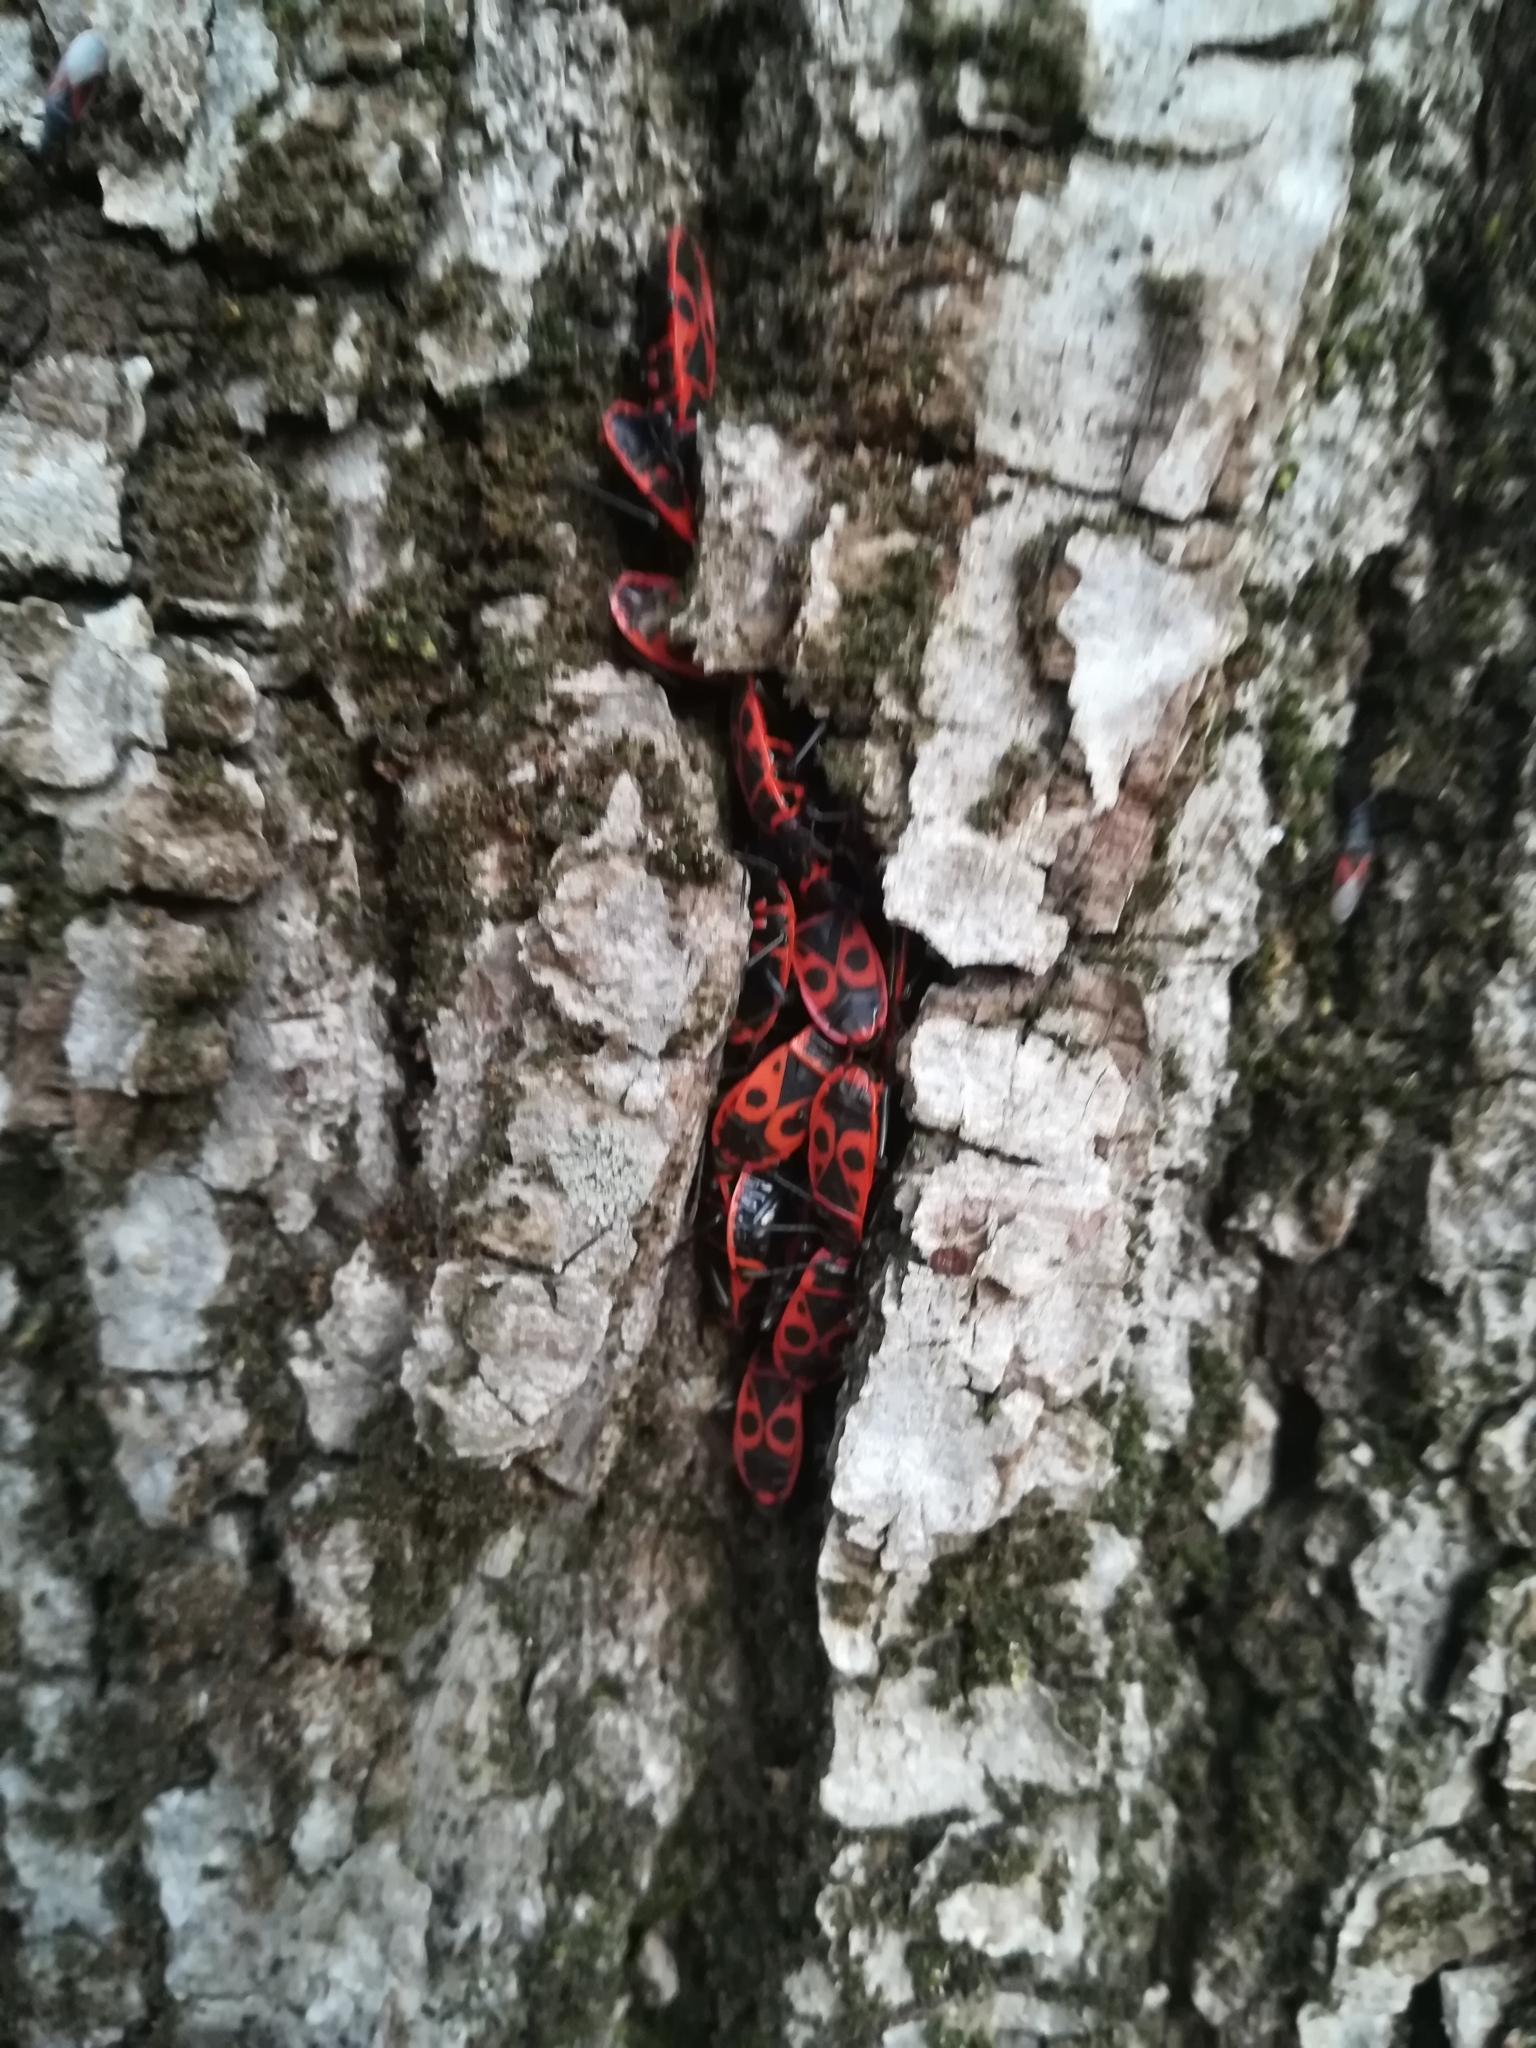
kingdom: Animalia
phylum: Arthropoda
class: Insecta
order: Hemiptera
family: Pyrrhocoridae
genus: Pyrrhocoris
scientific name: Pyrrhocoris apterus
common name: Firebug
